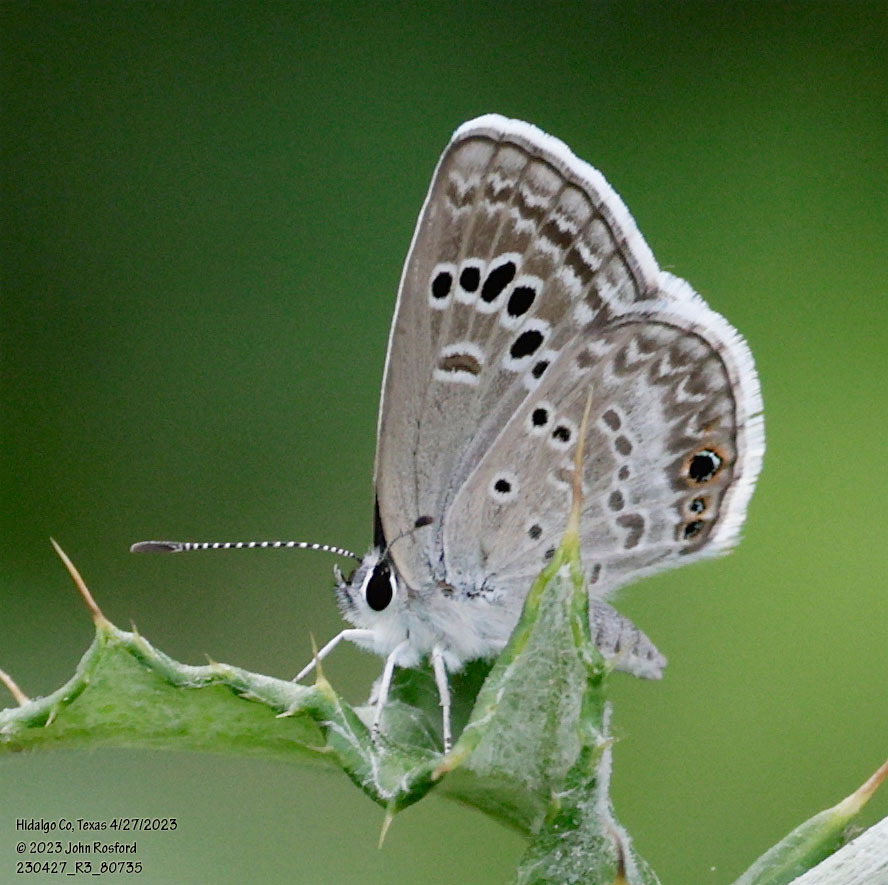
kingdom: Animalia
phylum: Arthropoda
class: Insecta
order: Lepidoptera
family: Lycaenidae
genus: Echinargus
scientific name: Echinargus isola
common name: Reakirt's blue
